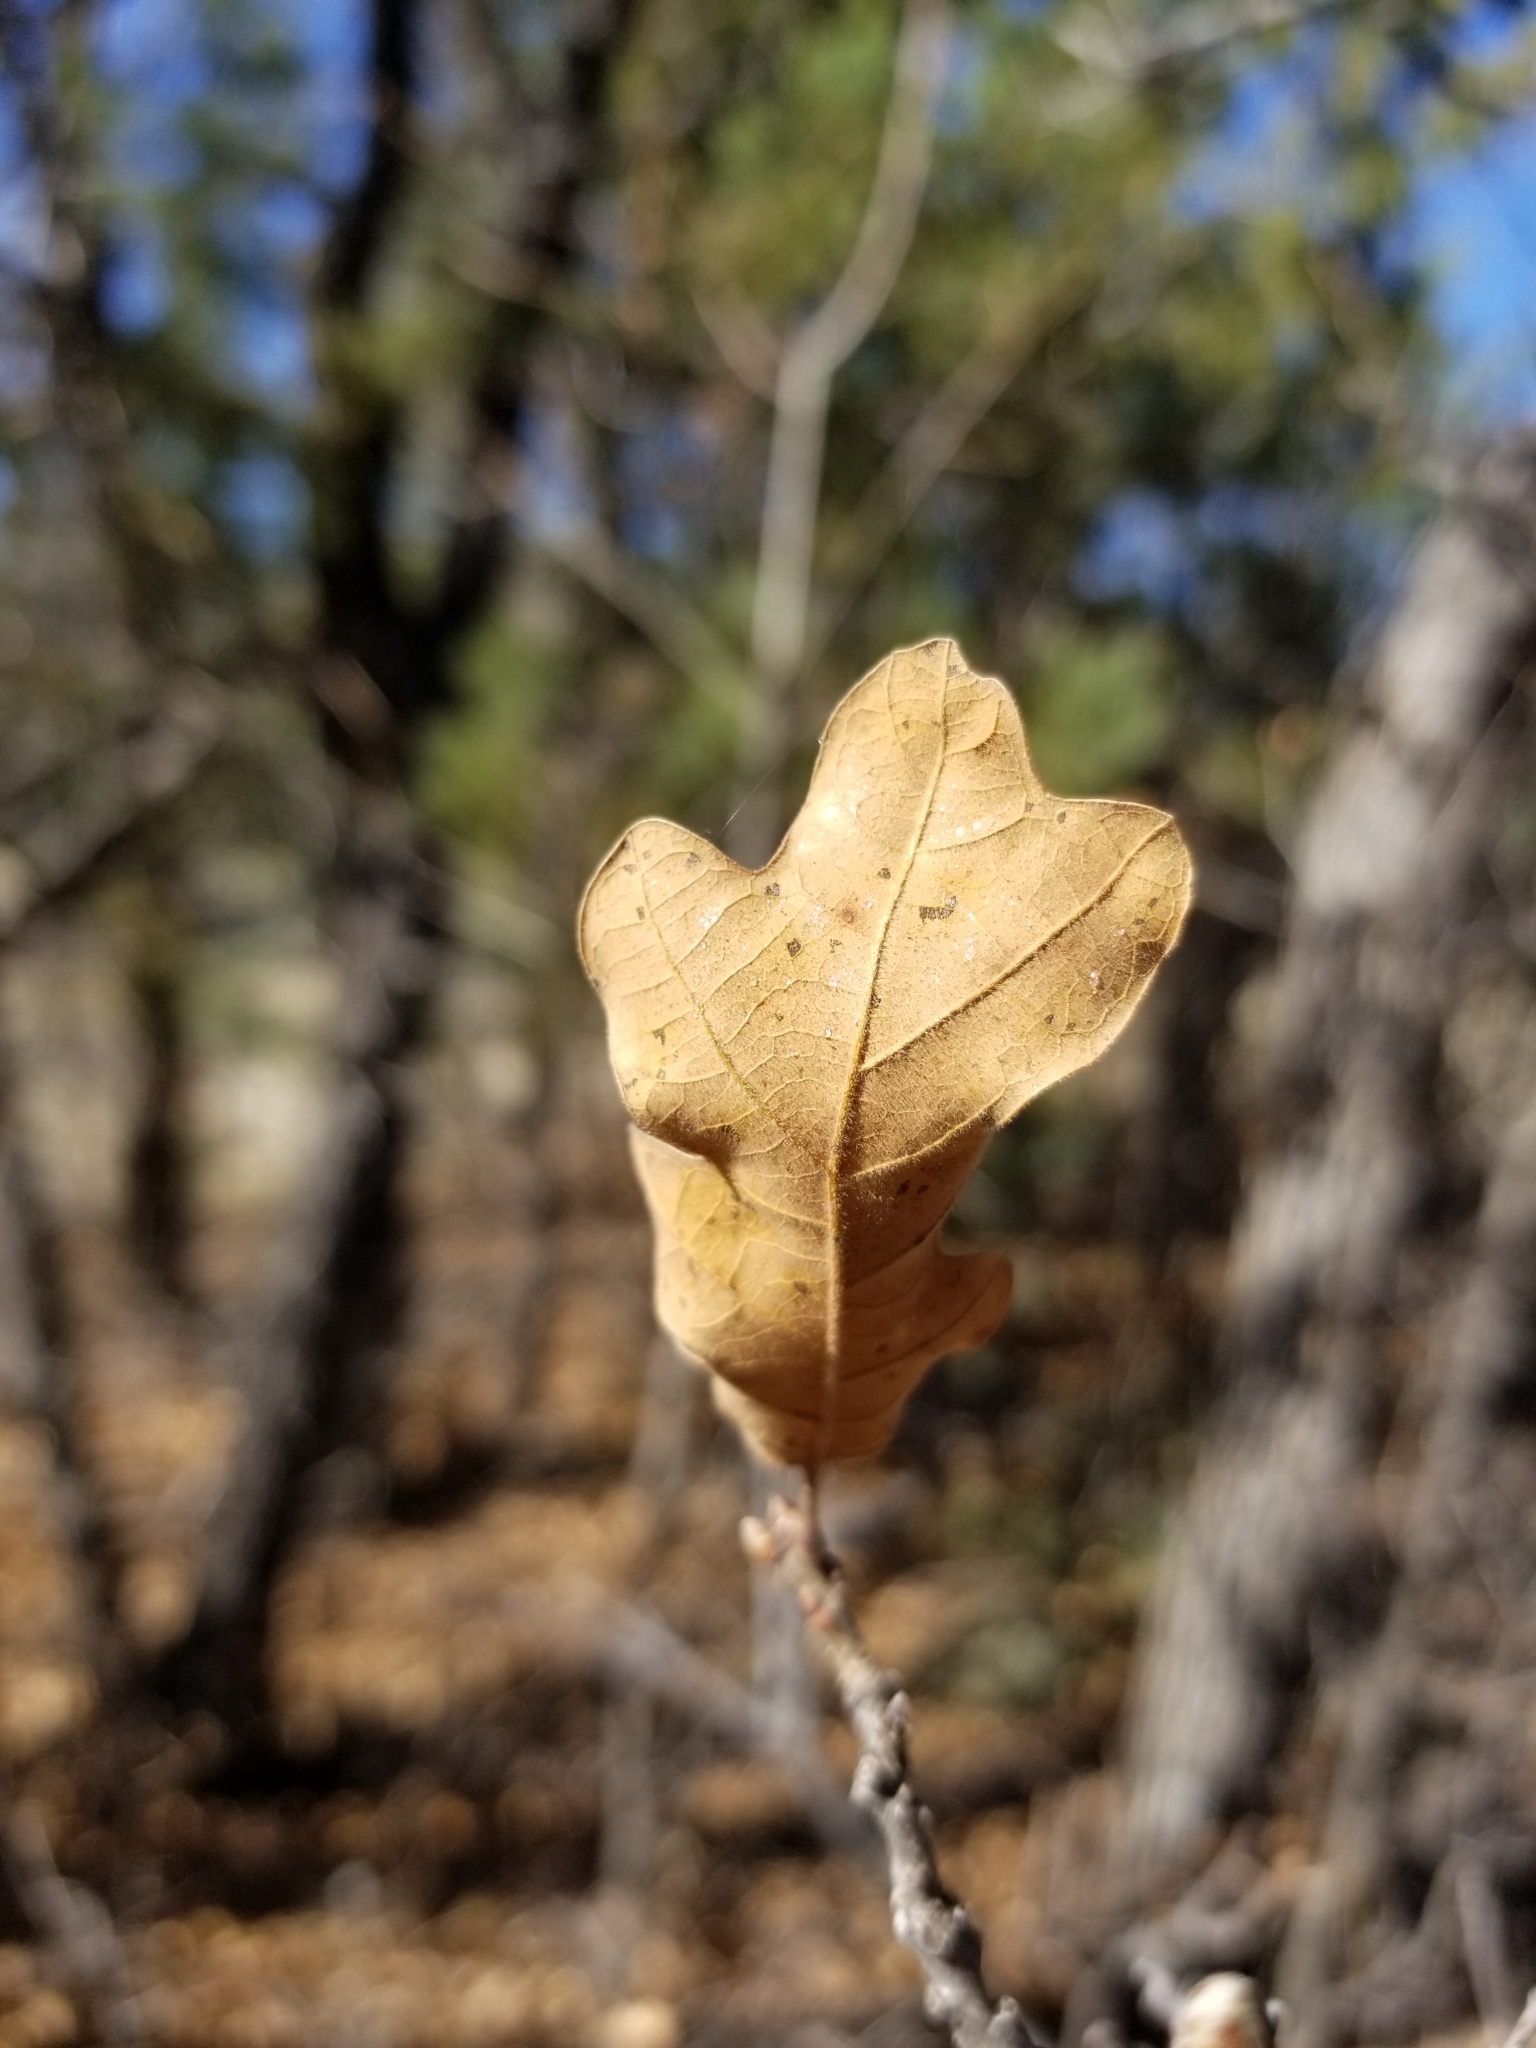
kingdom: Plantae
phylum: Tracheophyta
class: Magnoliopsida
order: Fagales
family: Fagaceae
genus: Quercus
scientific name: Quercus gambelii
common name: Gambel oak
